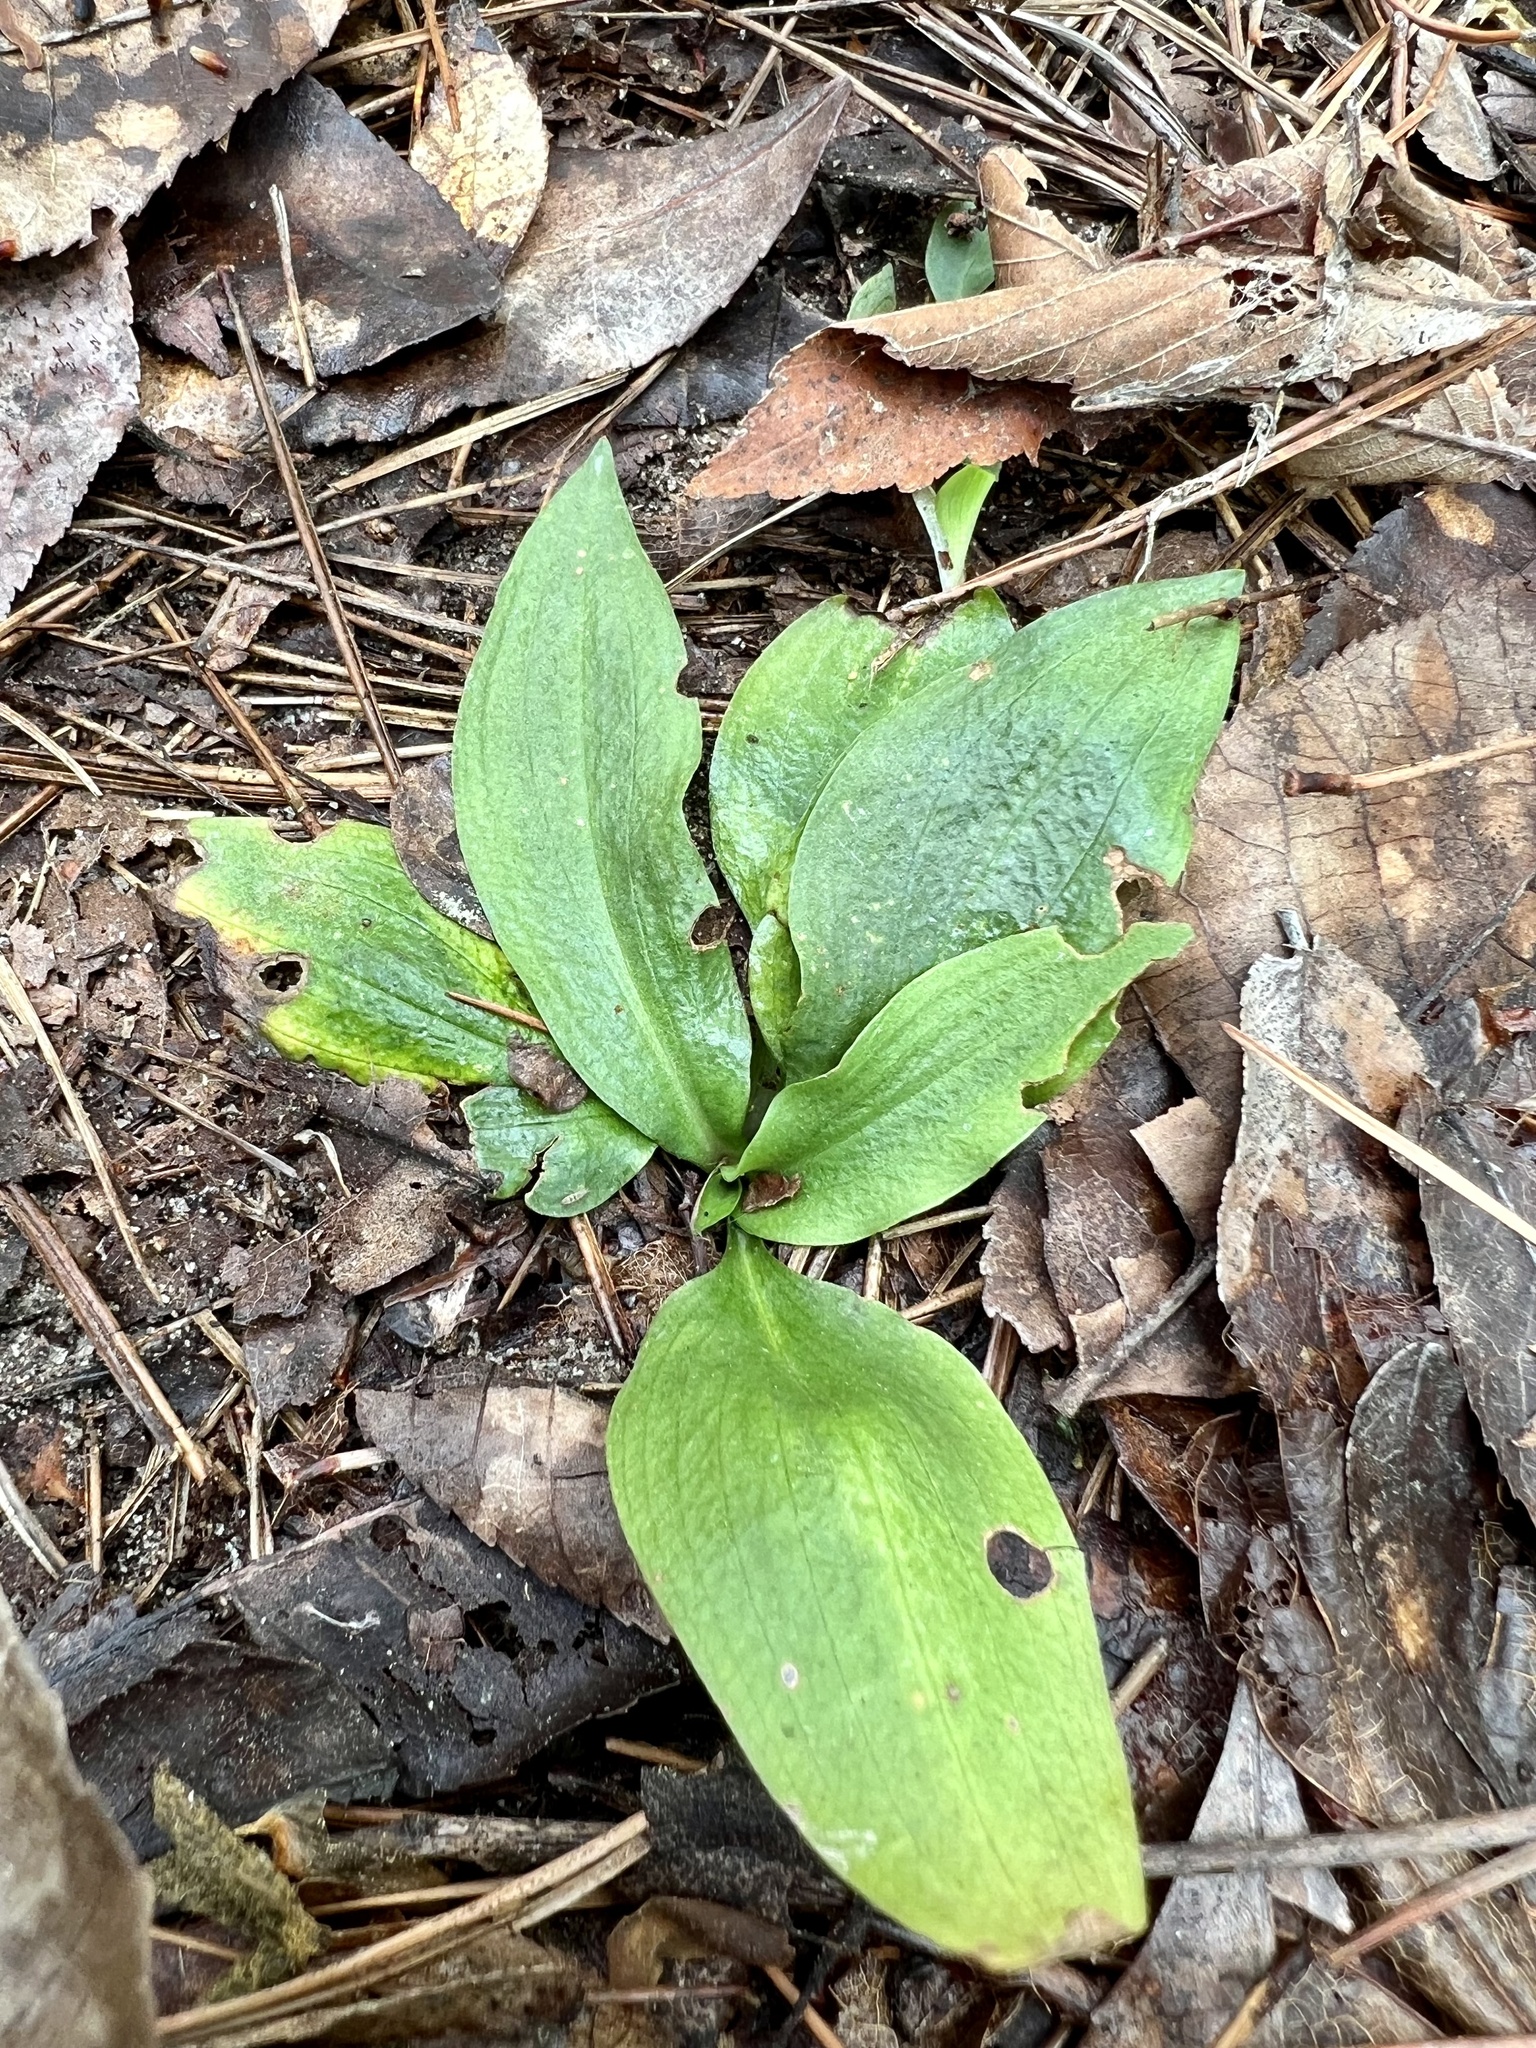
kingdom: Plantae
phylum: Tracheophyta
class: Liliopsida
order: Asparagales
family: Orchidaceae
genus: Spiranthes
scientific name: Spiranthes tuberosa
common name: Little ladies'-tresses
